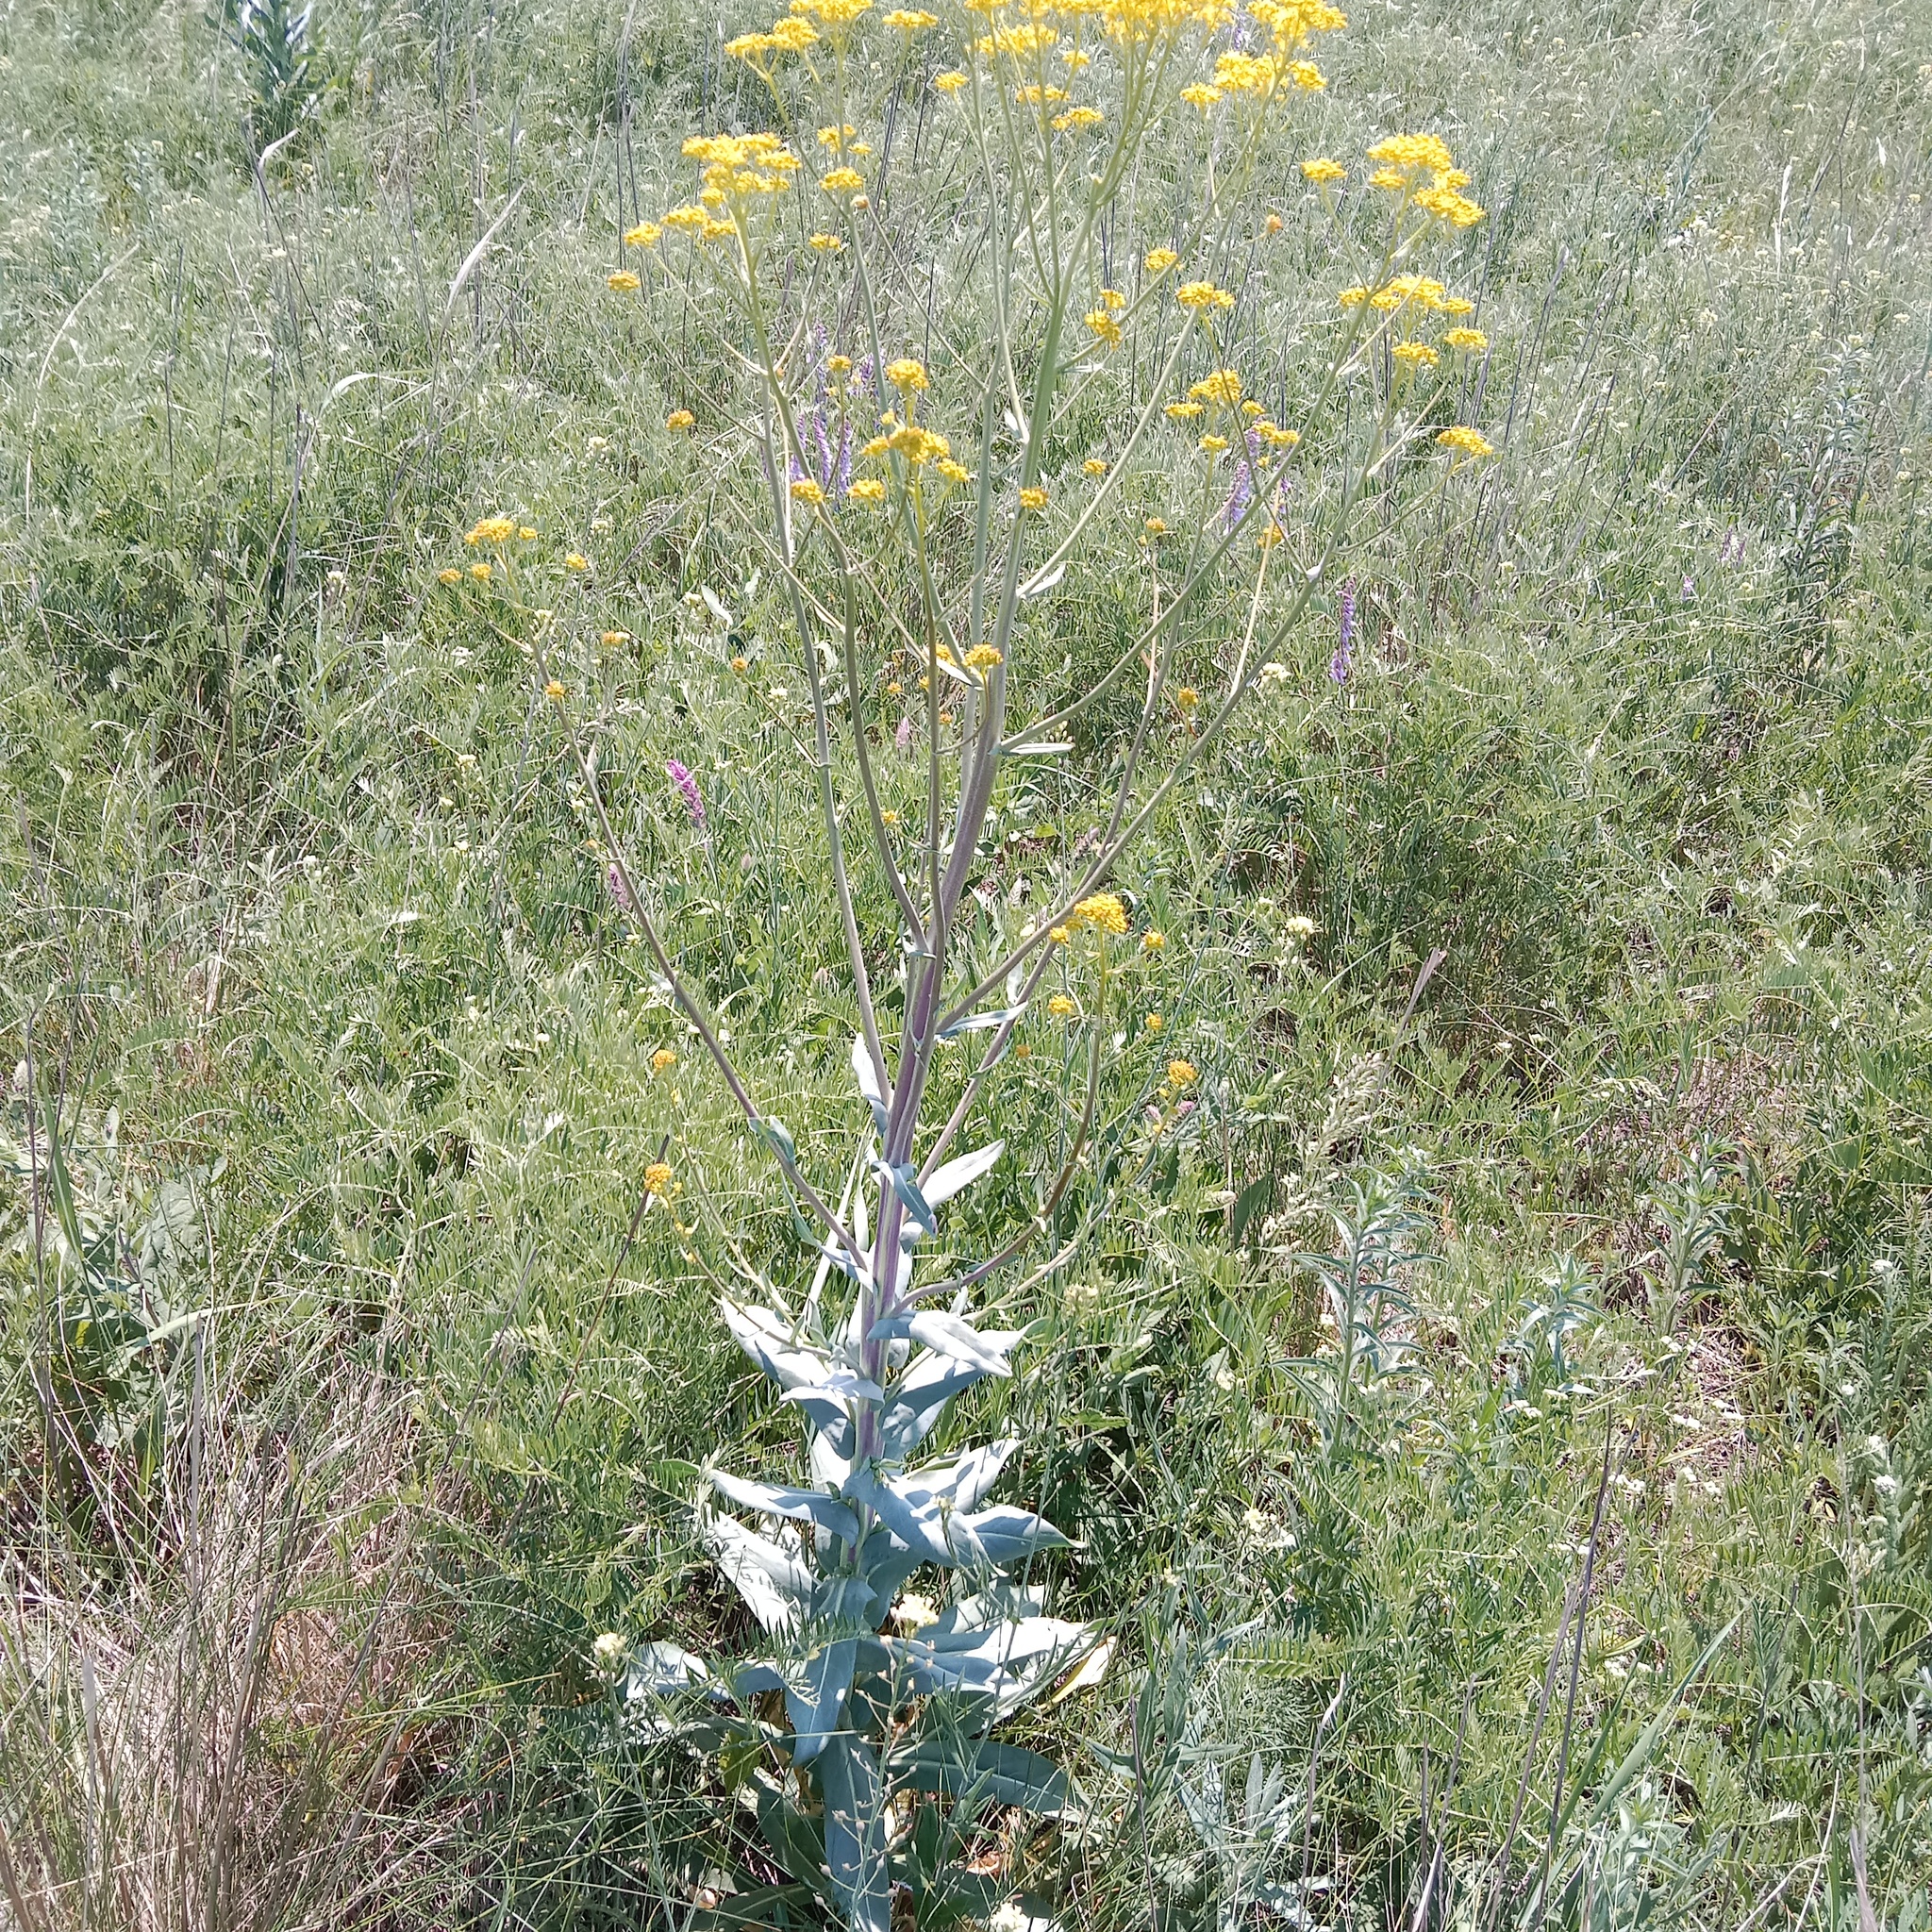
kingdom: Plantae
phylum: Tracheophyta
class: Magnoliopsida
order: Brassicales
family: Brassicaceae
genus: Isatis
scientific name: Isatis tinctoria
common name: Woad
